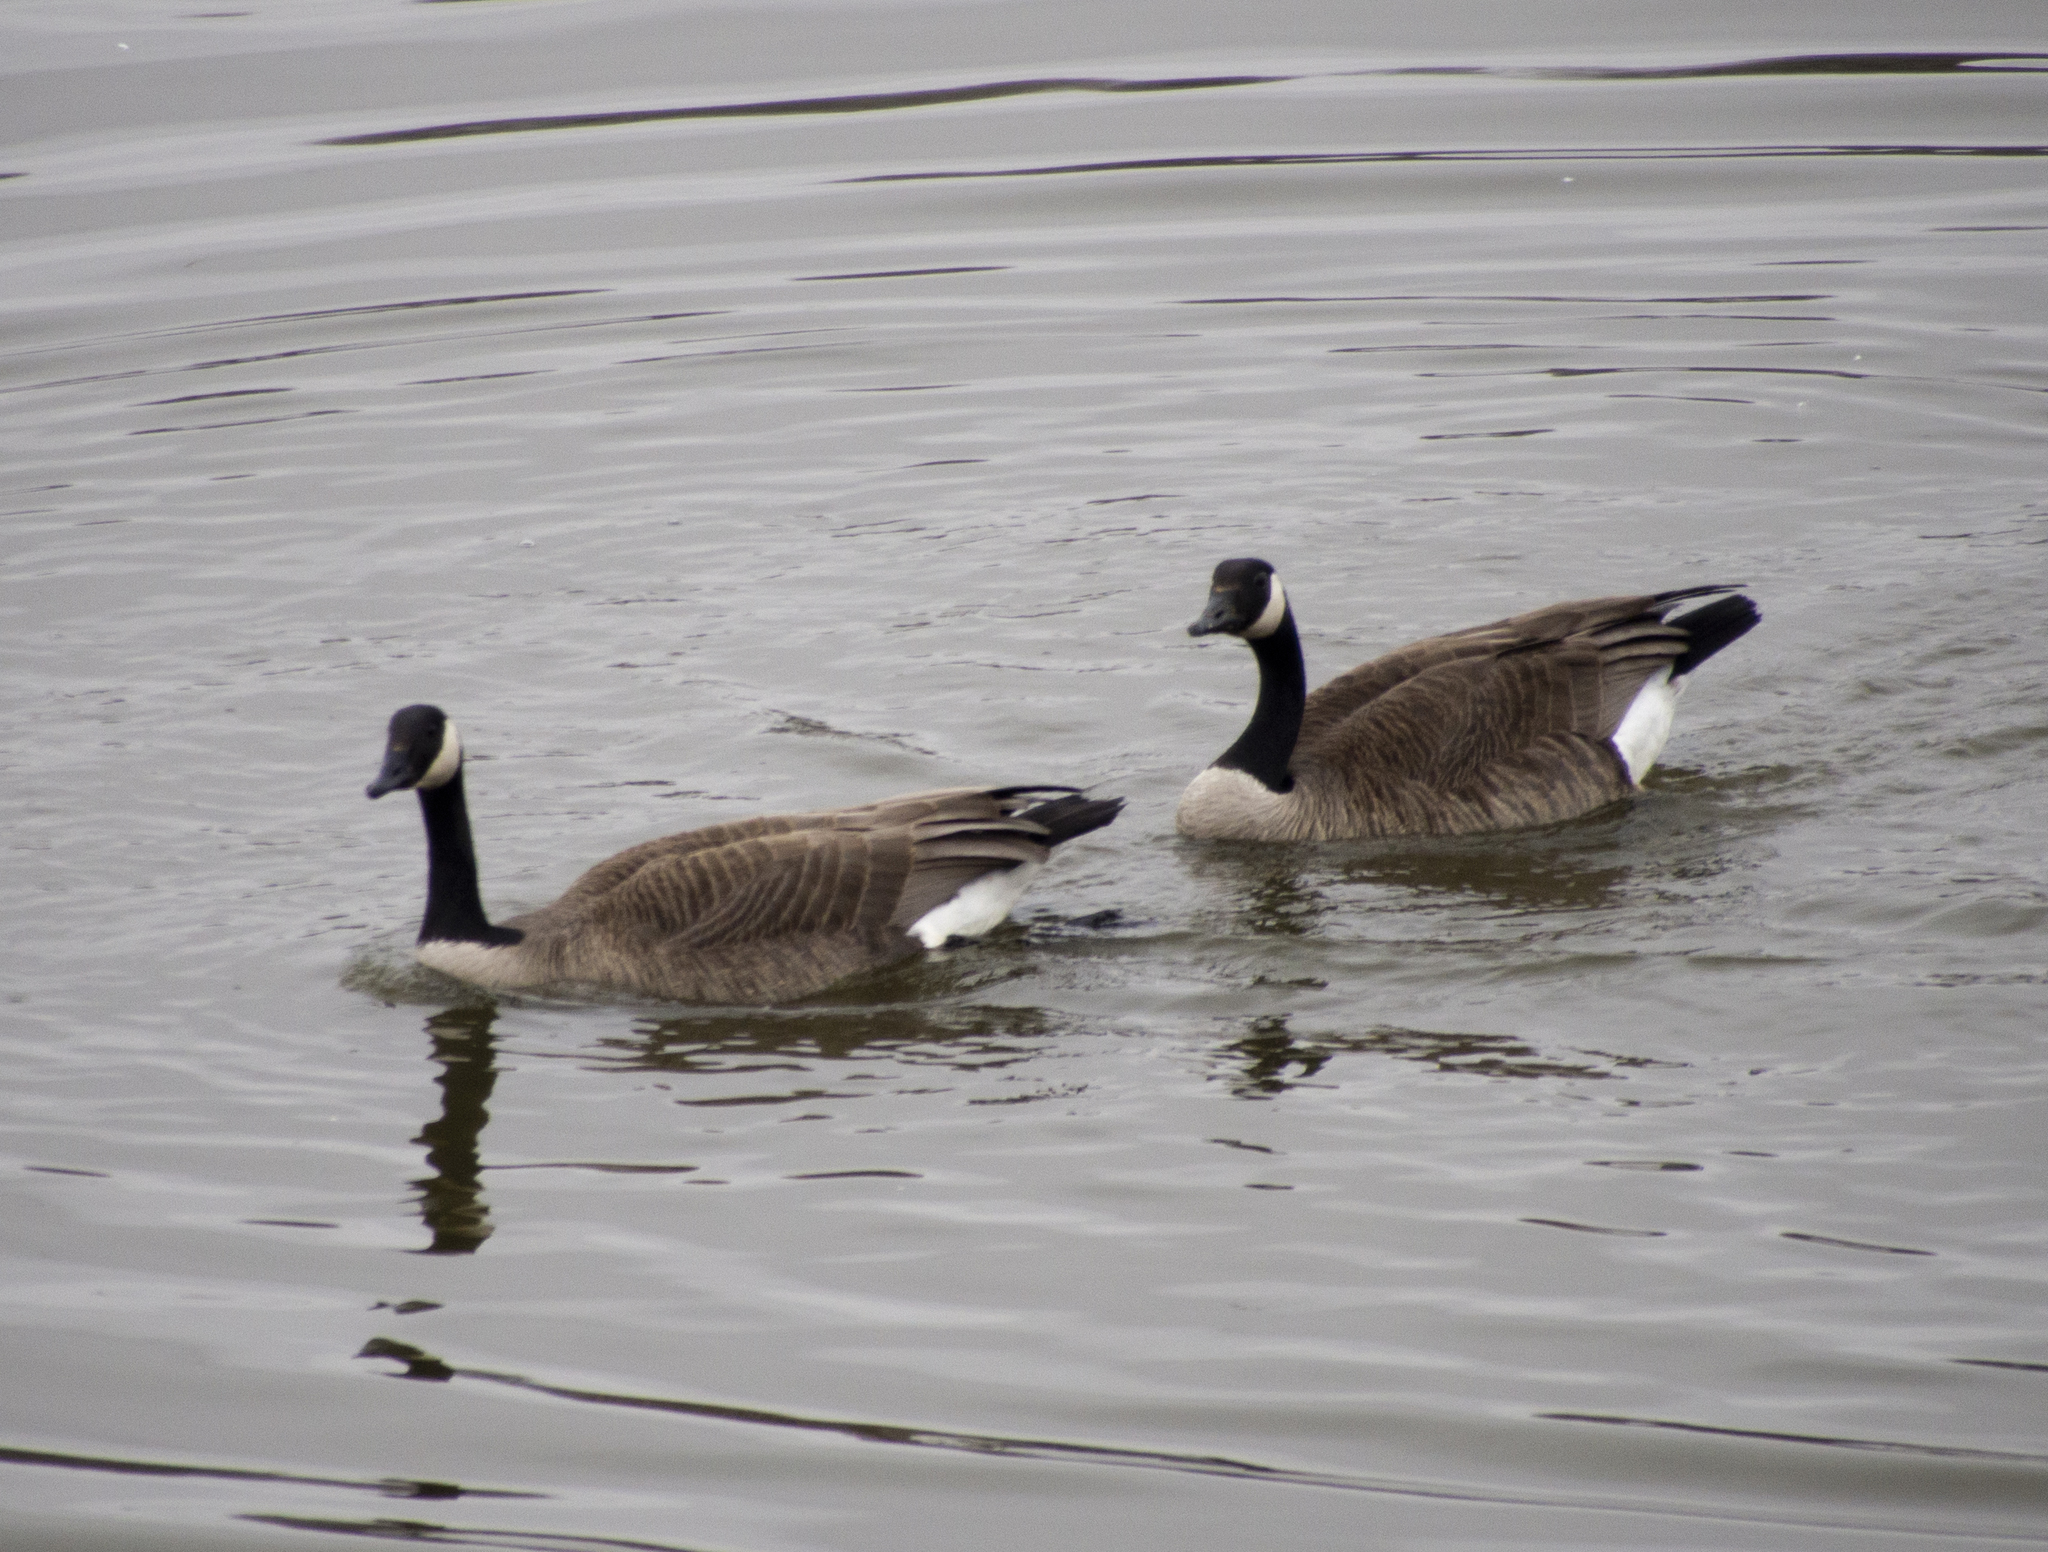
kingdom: Animalia
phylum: Chordata
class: Aves
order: Anseriformes
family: Anatidae
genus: Branta
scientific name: Branta canadensis
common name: Canada goose
